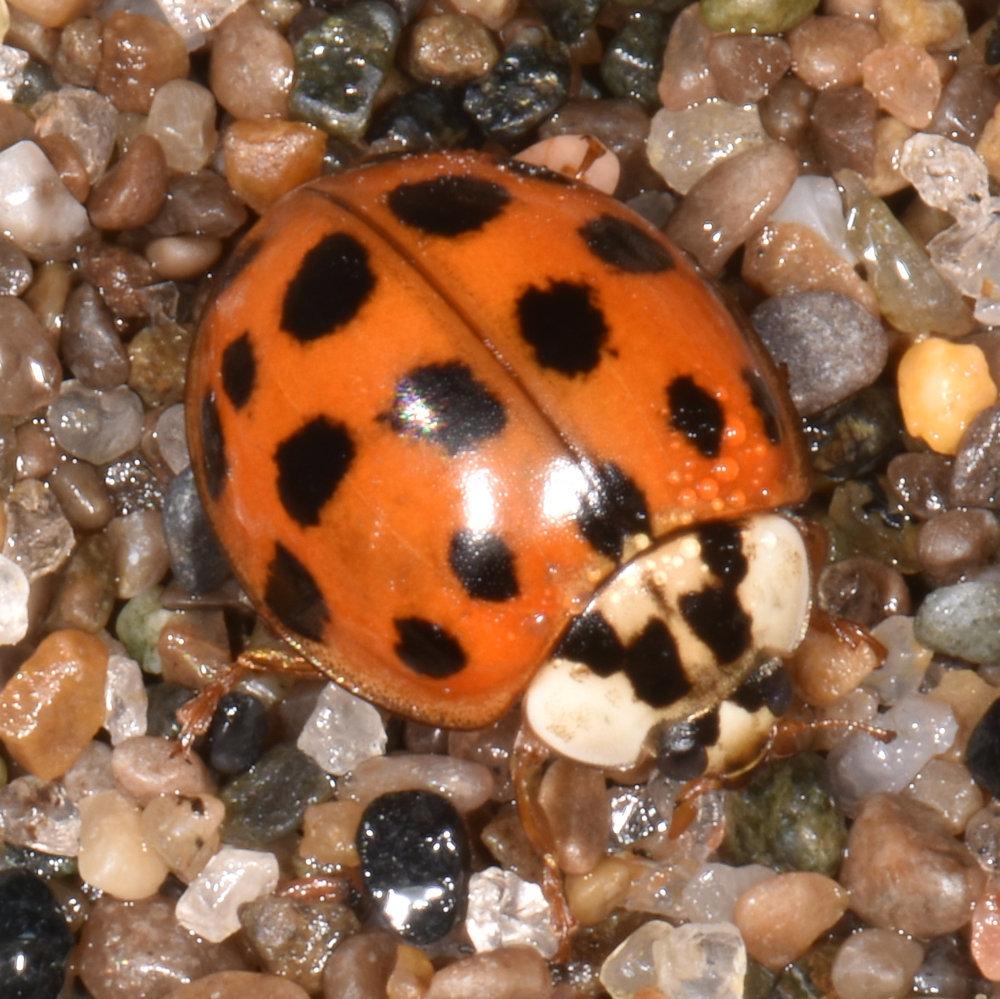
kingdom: Animalia
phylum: Arthropoda
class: Insecta
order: Coleoptera
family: Coccinellidae
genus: Harmonia
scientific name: Harmonia axyridis
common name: Harlequin ladybird
